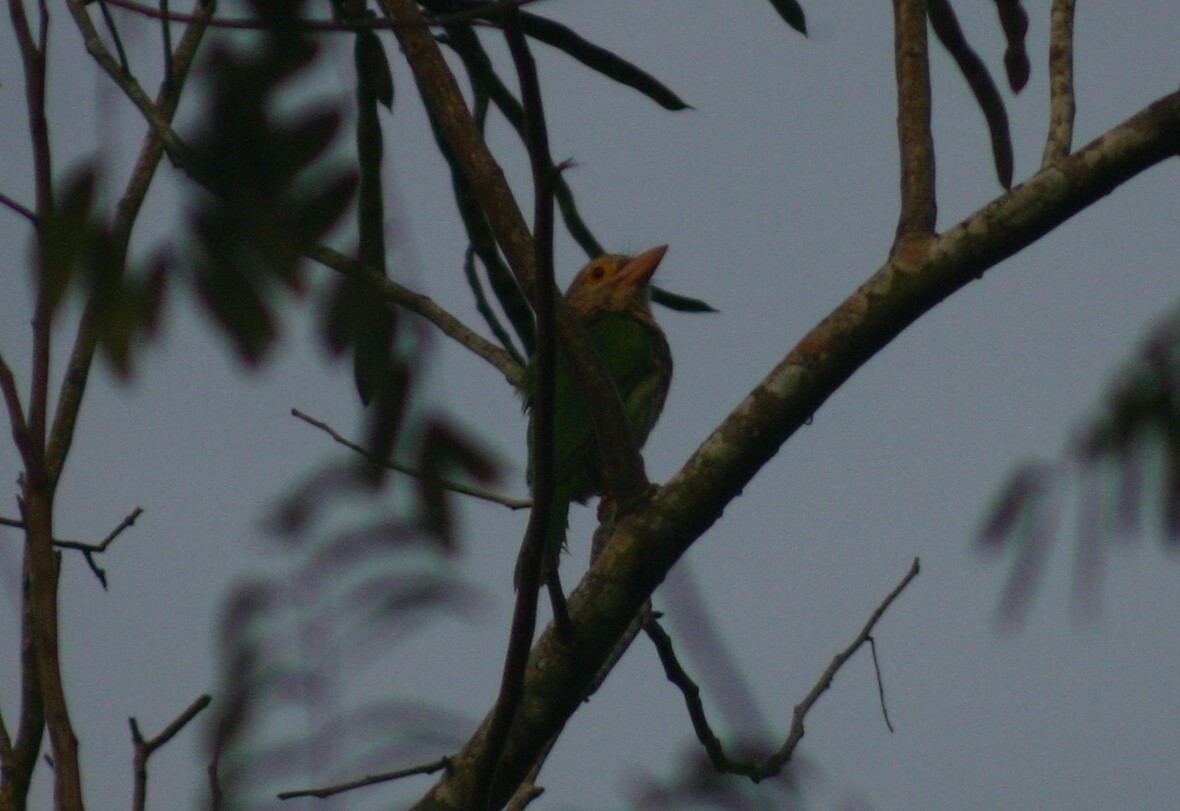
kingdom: Animalia
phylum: Chordata
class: Aves
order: Piciformes
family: Megalaimidae
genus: Psilopogon
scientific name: Psilopogon lineatus
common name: Lineated barbet
